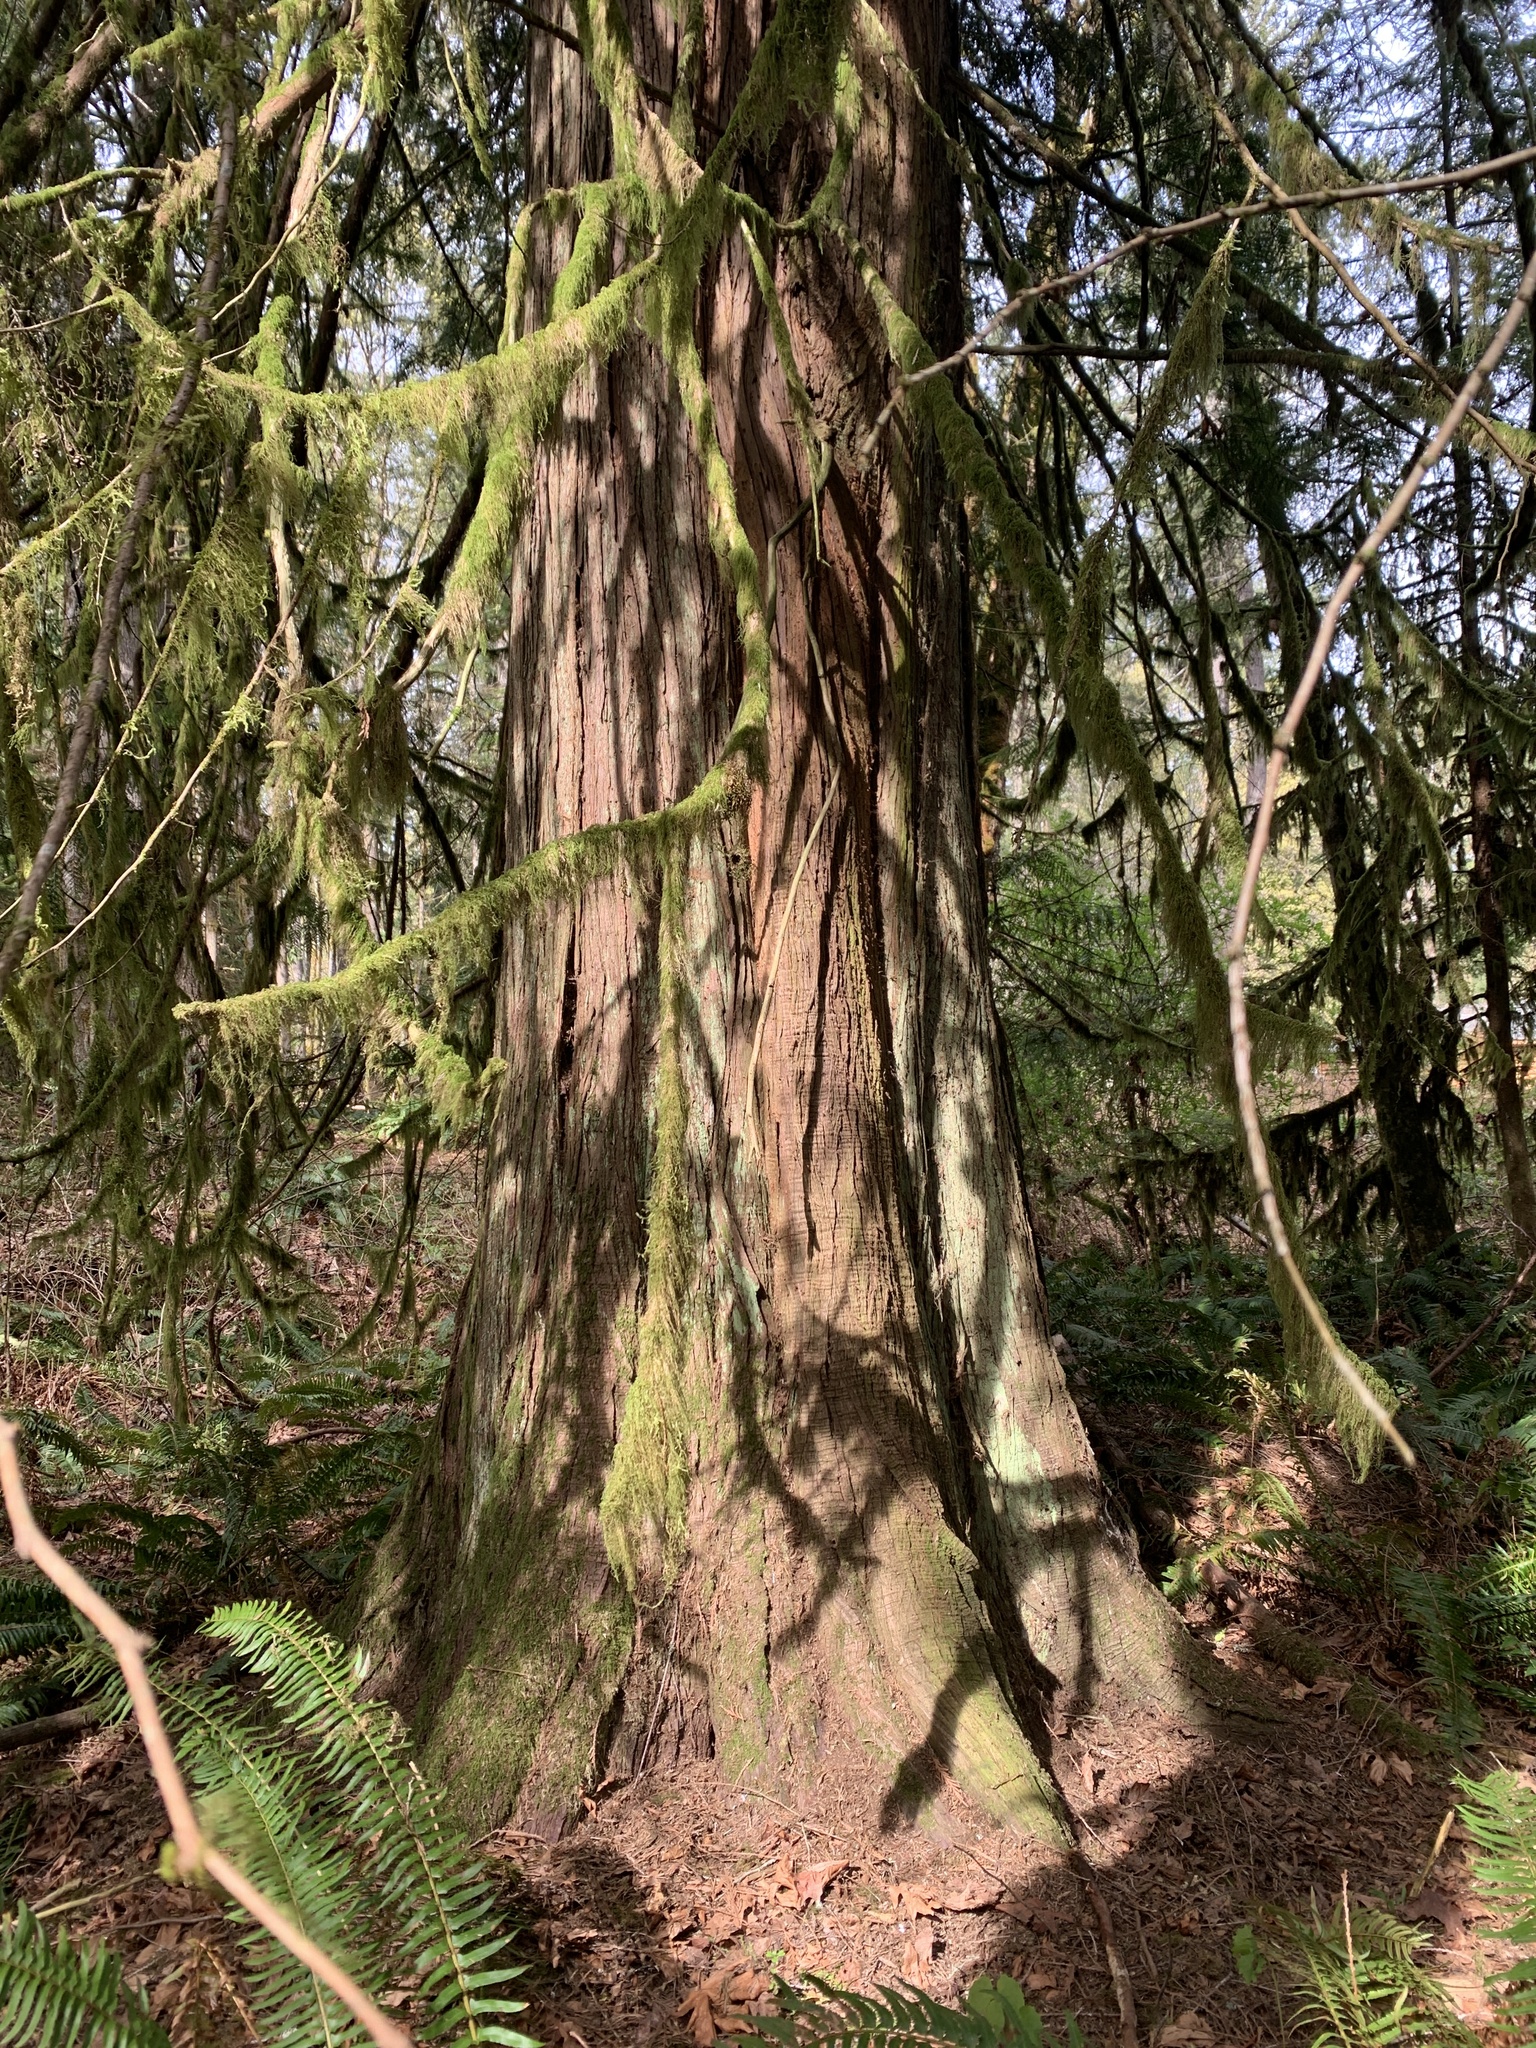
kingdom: Plantae
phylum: Tracheophyta
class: Pinopsida
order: Pinales
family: Cupressaceae
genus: Thuja
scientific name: Thuja plicata
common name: Western red-cedar
